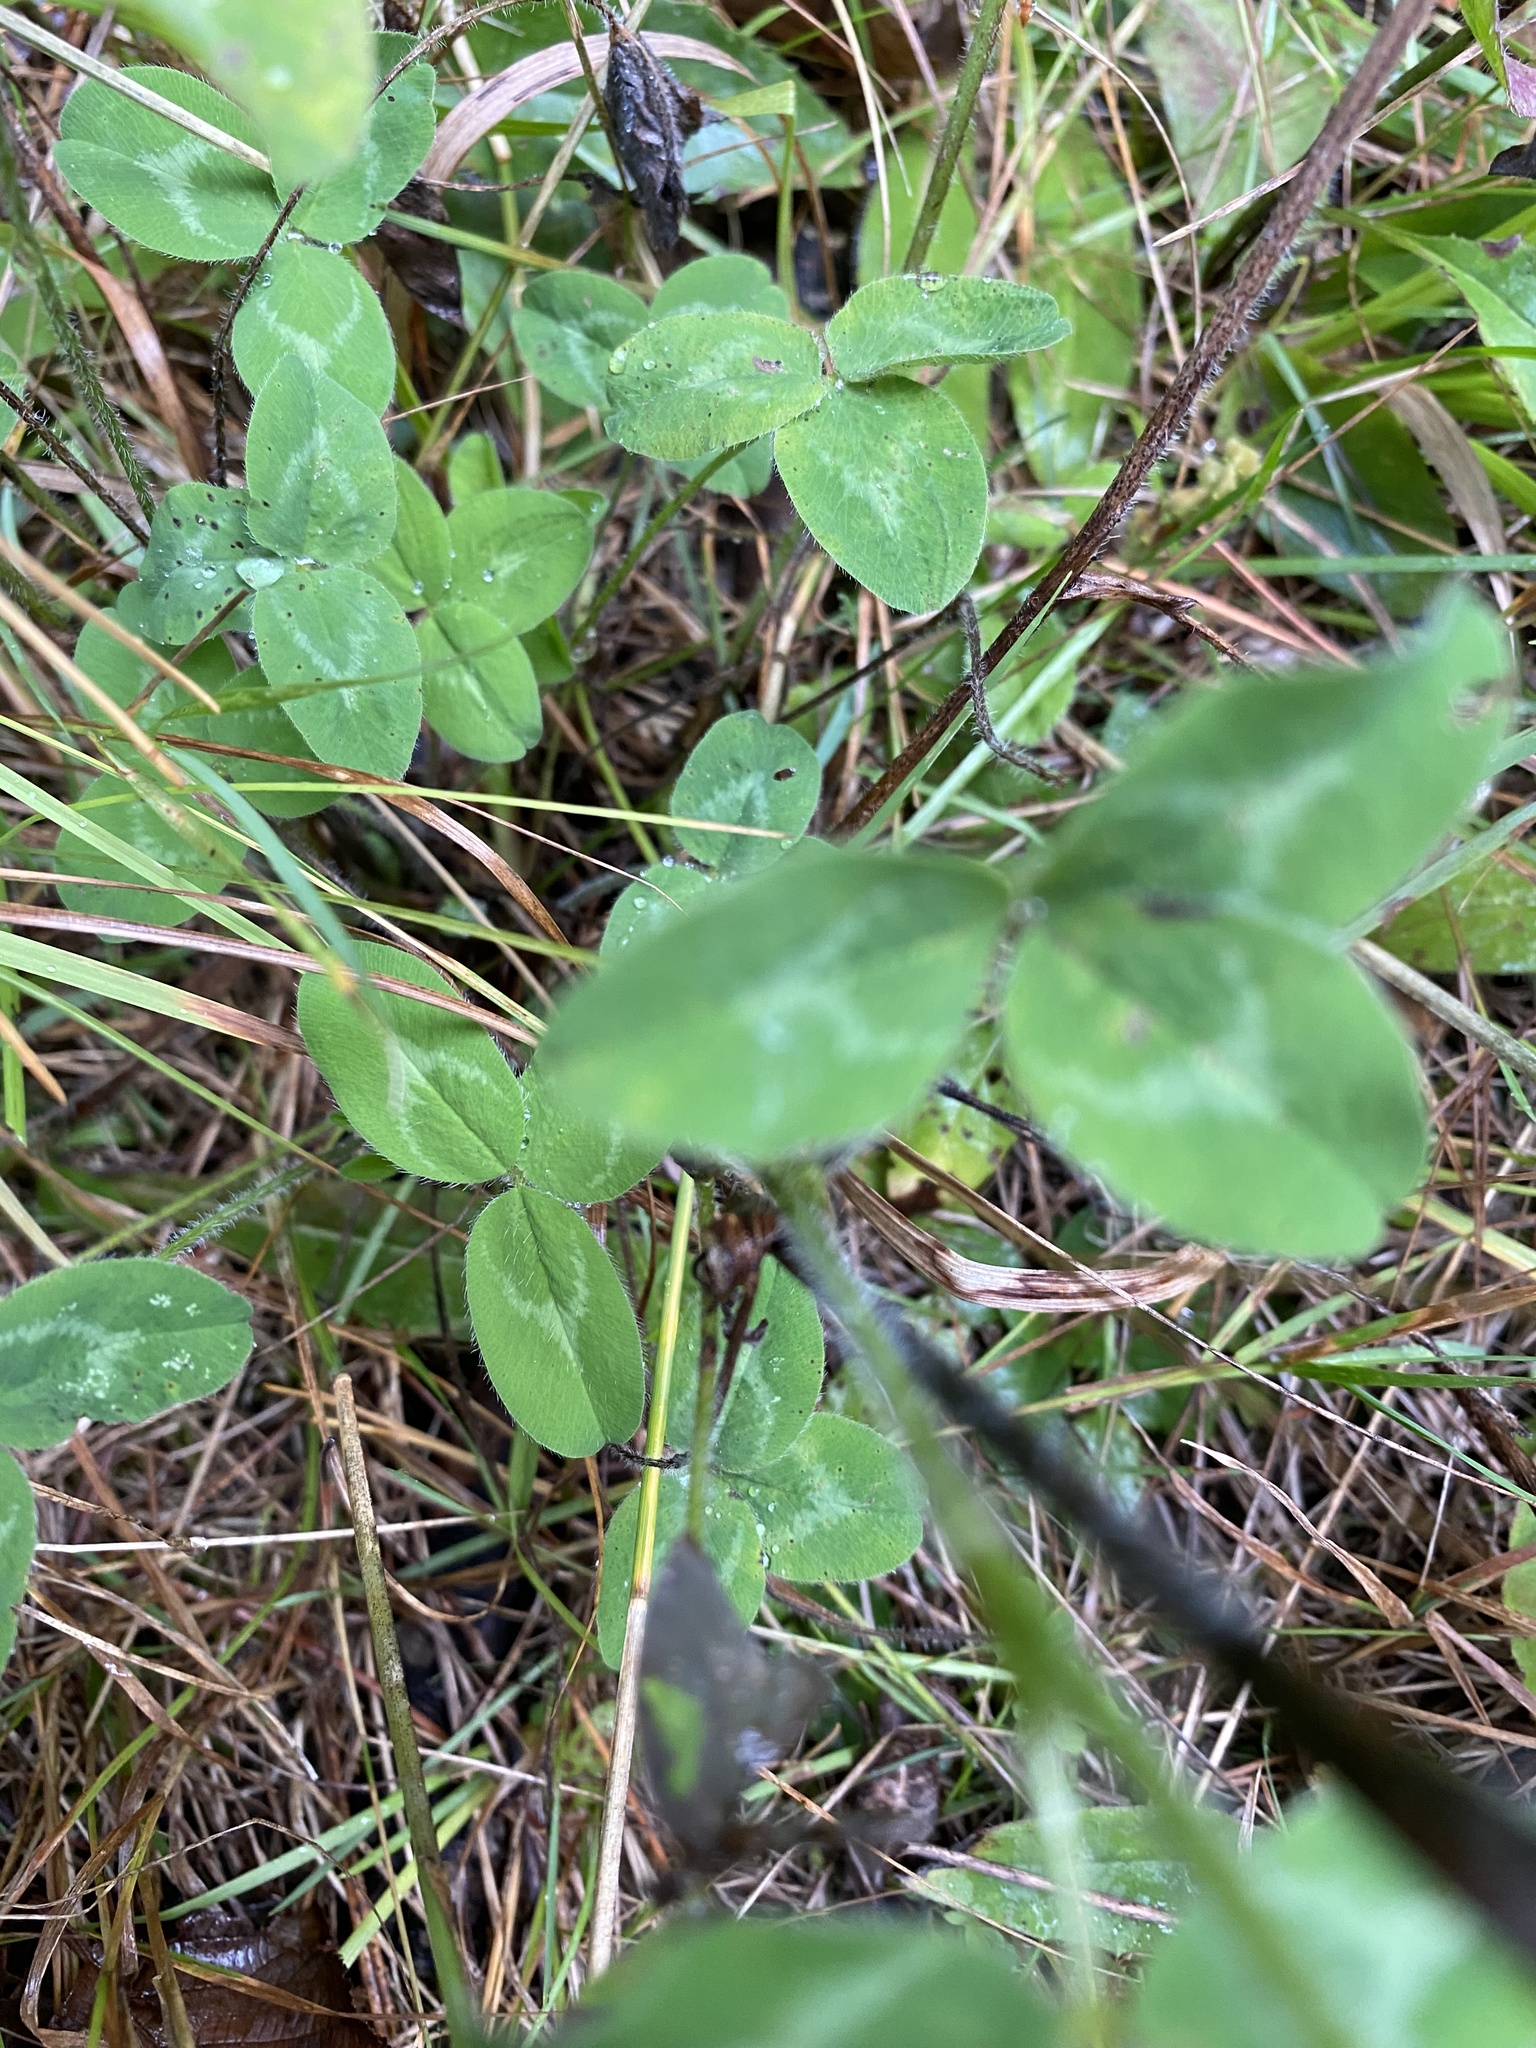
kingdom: Plantae
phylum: Tracheophyta
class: Magnoliopsida
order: Fabales
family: Fabaceae
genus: Trifolium
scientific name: Trifolium pratense
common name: Red clover
